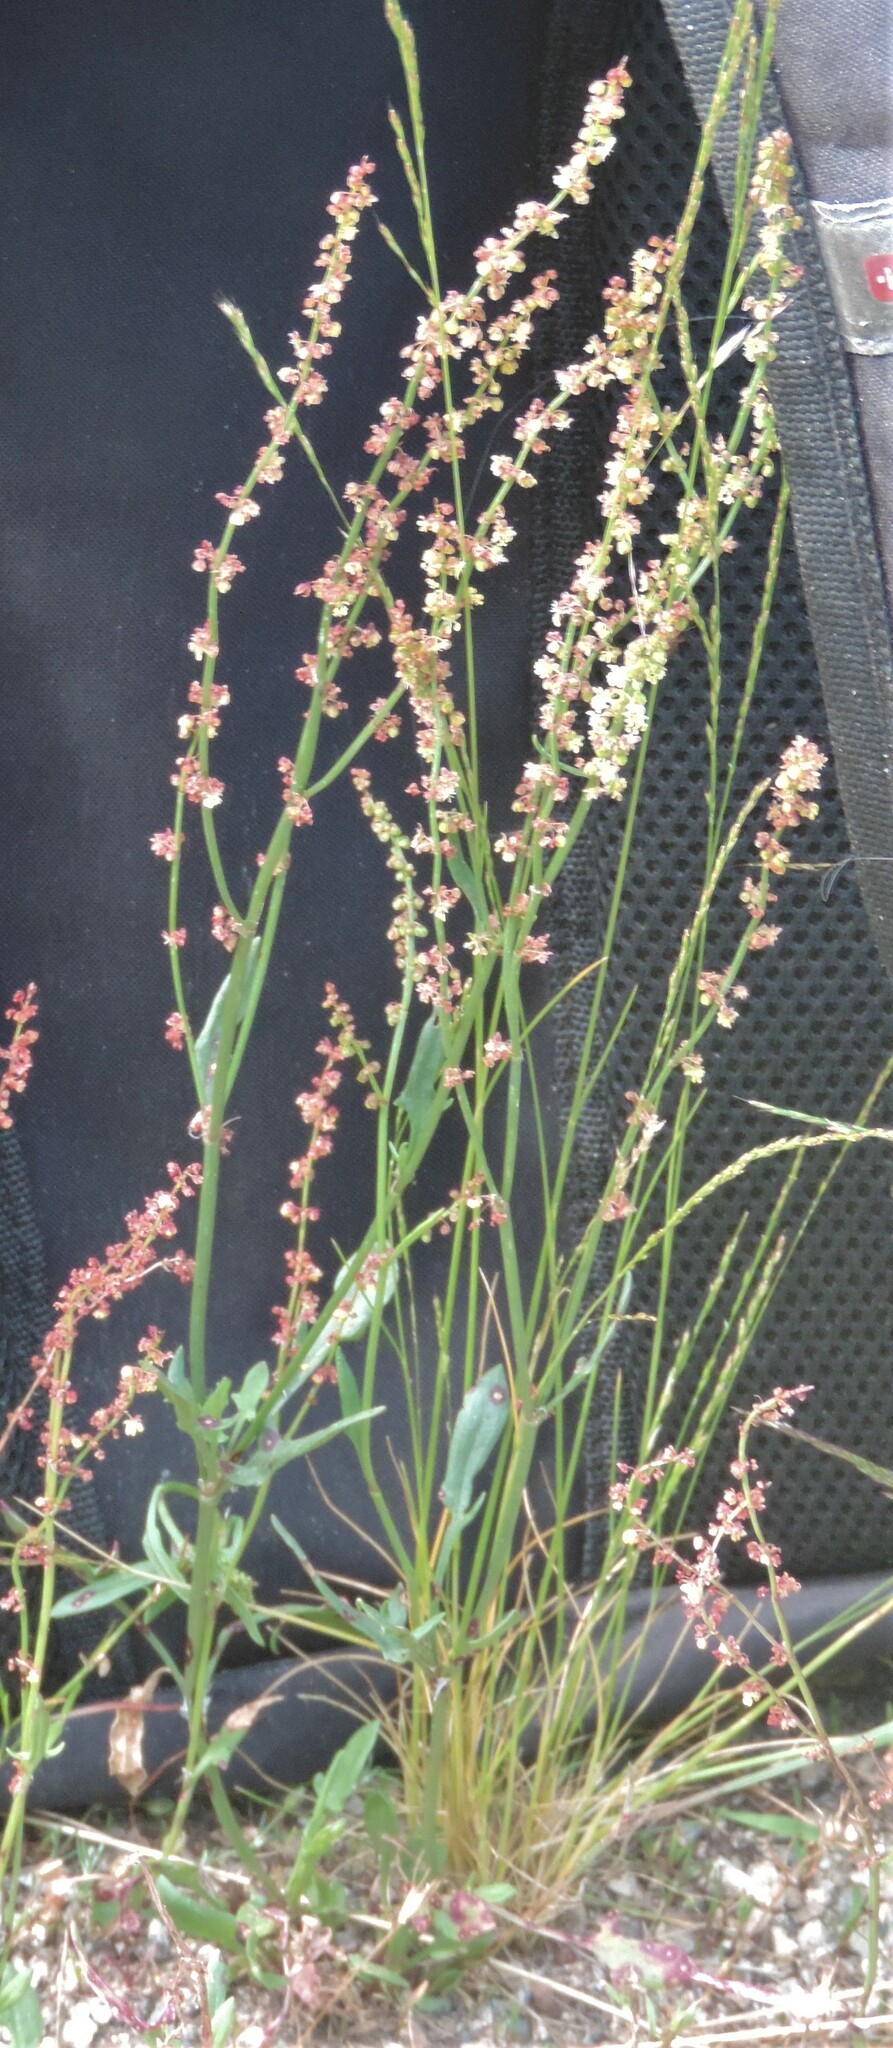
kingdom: Plantae
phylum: Tracheophyta
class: Magnoliopsida
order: Caryophyllales
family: Polygonaceae
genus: Rumex
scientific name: Rumex acetosella
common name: Common sheep sorrel
